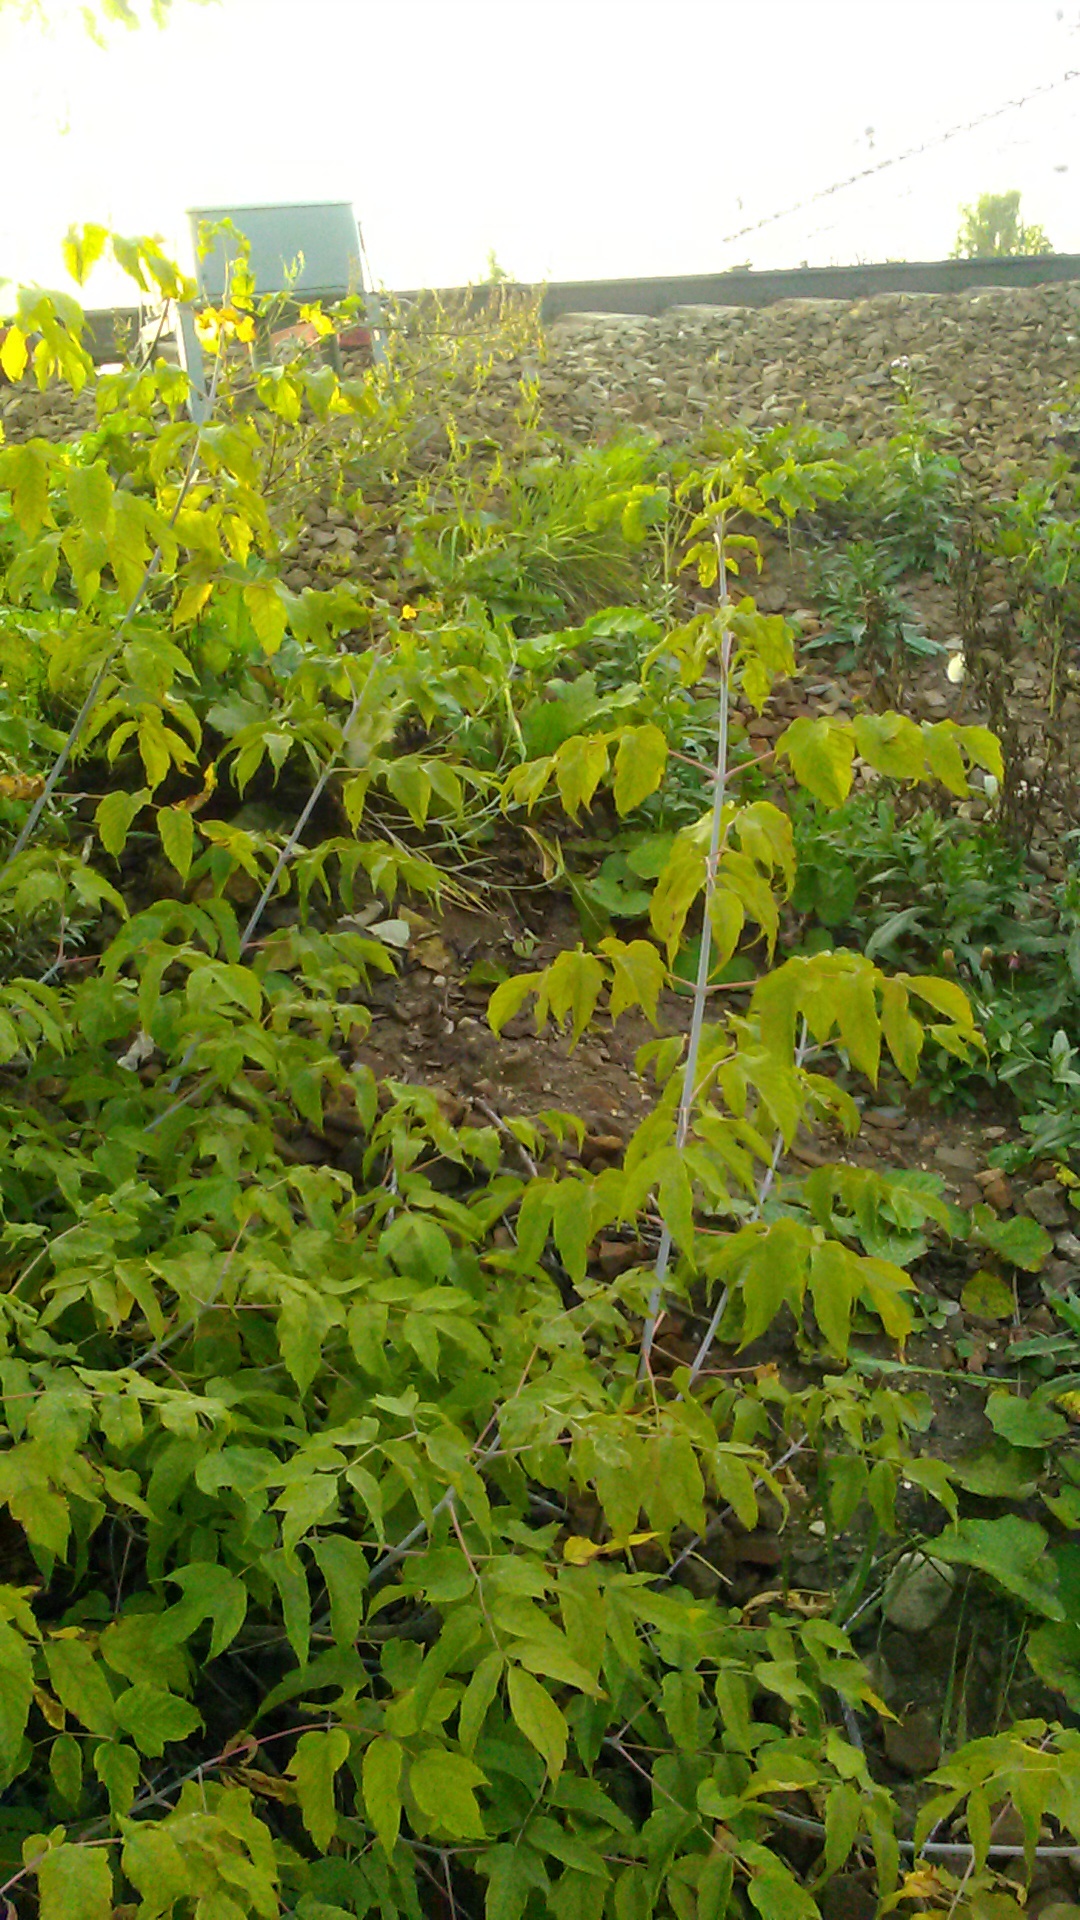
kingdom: Plantae
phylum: Tracheophyta
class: Magnoliopsida
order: Sapindales
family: Sapindaceae
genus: Acer
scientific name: Acer negundo
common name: Ashleaf maple
